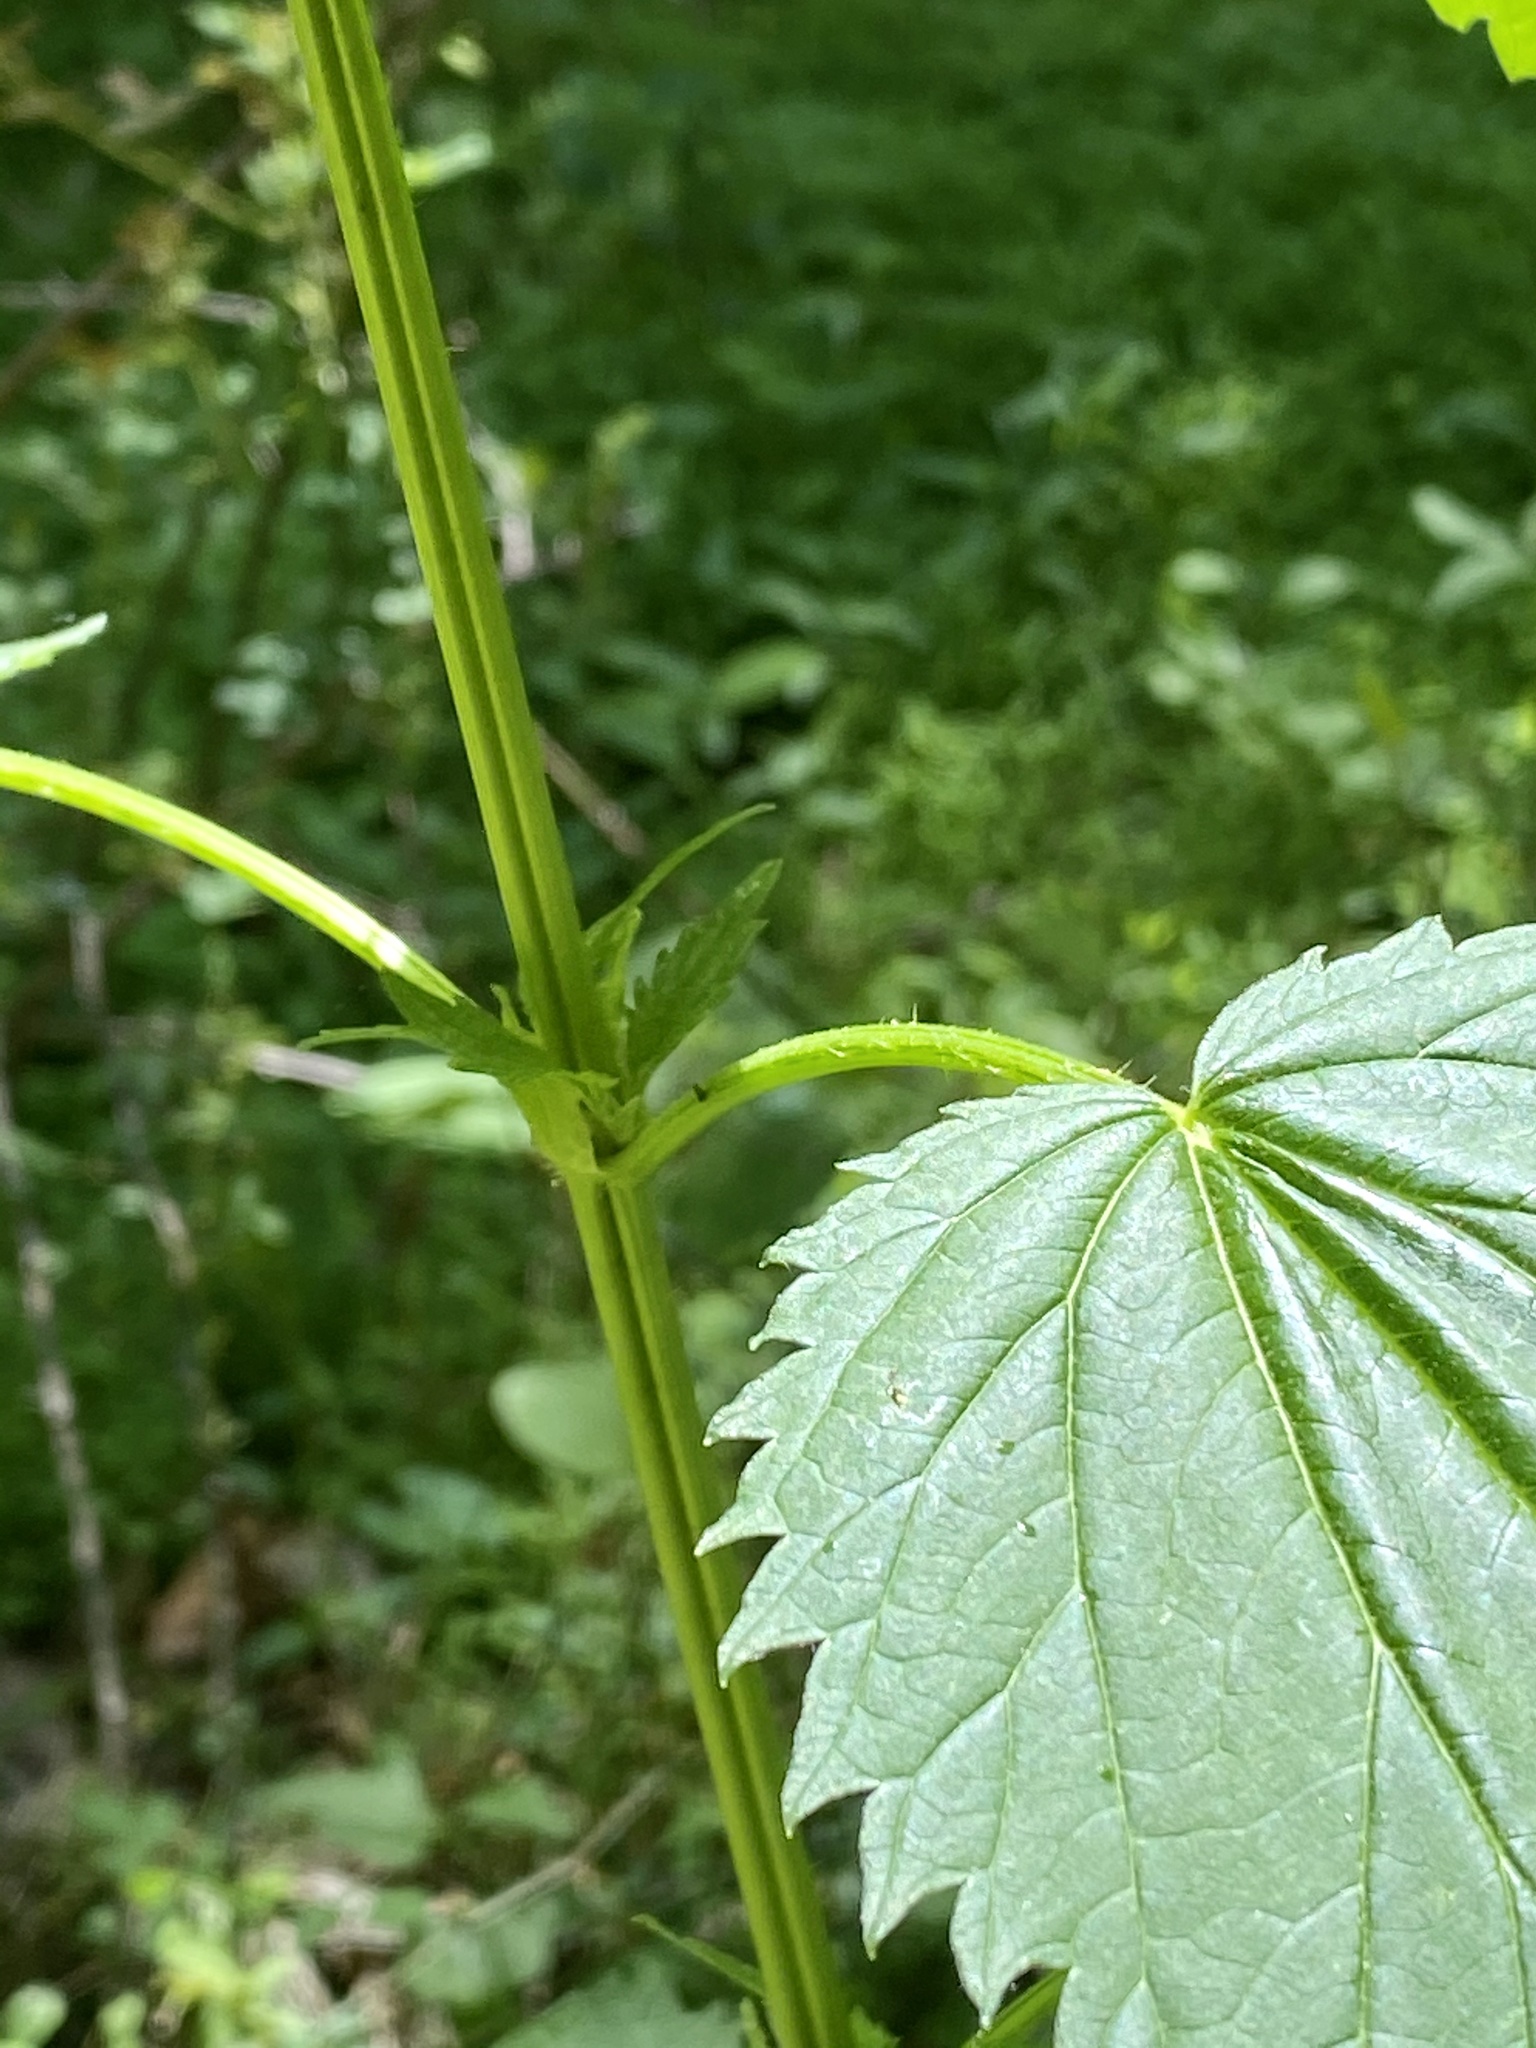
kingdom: Plantae
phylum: Tracheophyta
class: Magnoliopsida
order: Rosales
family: Urticaceae
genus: Urtica
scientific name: Urtica dioica
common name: Common nettle
